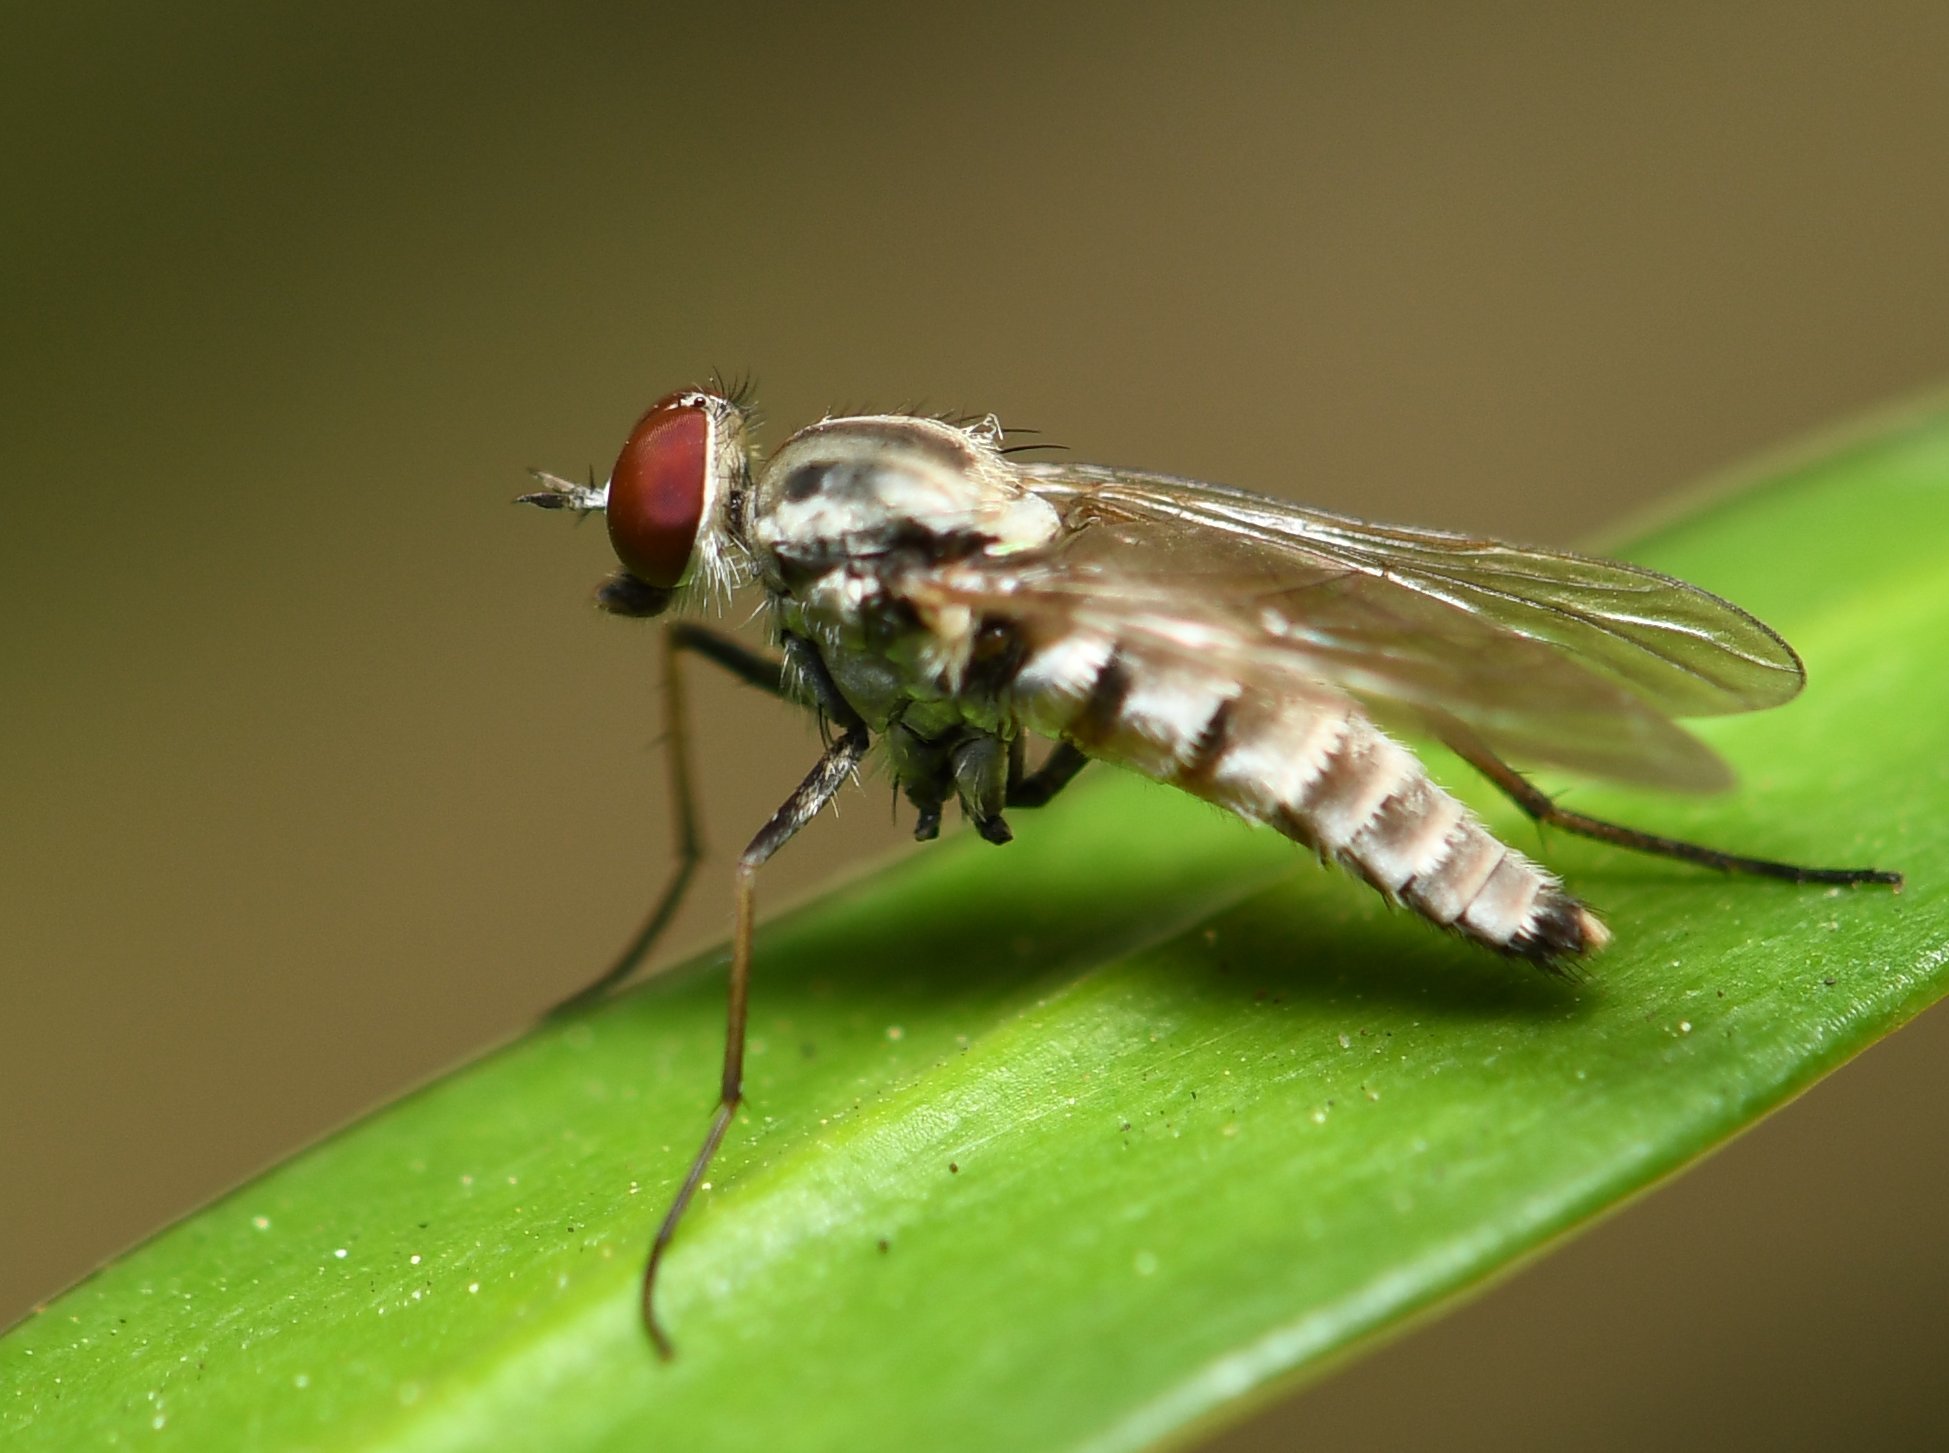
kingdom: Animalia
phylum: Arthropoda
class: Insecta
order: Diptera
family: Therevidae
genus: Penniverpa
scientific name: Penniverpa festina
